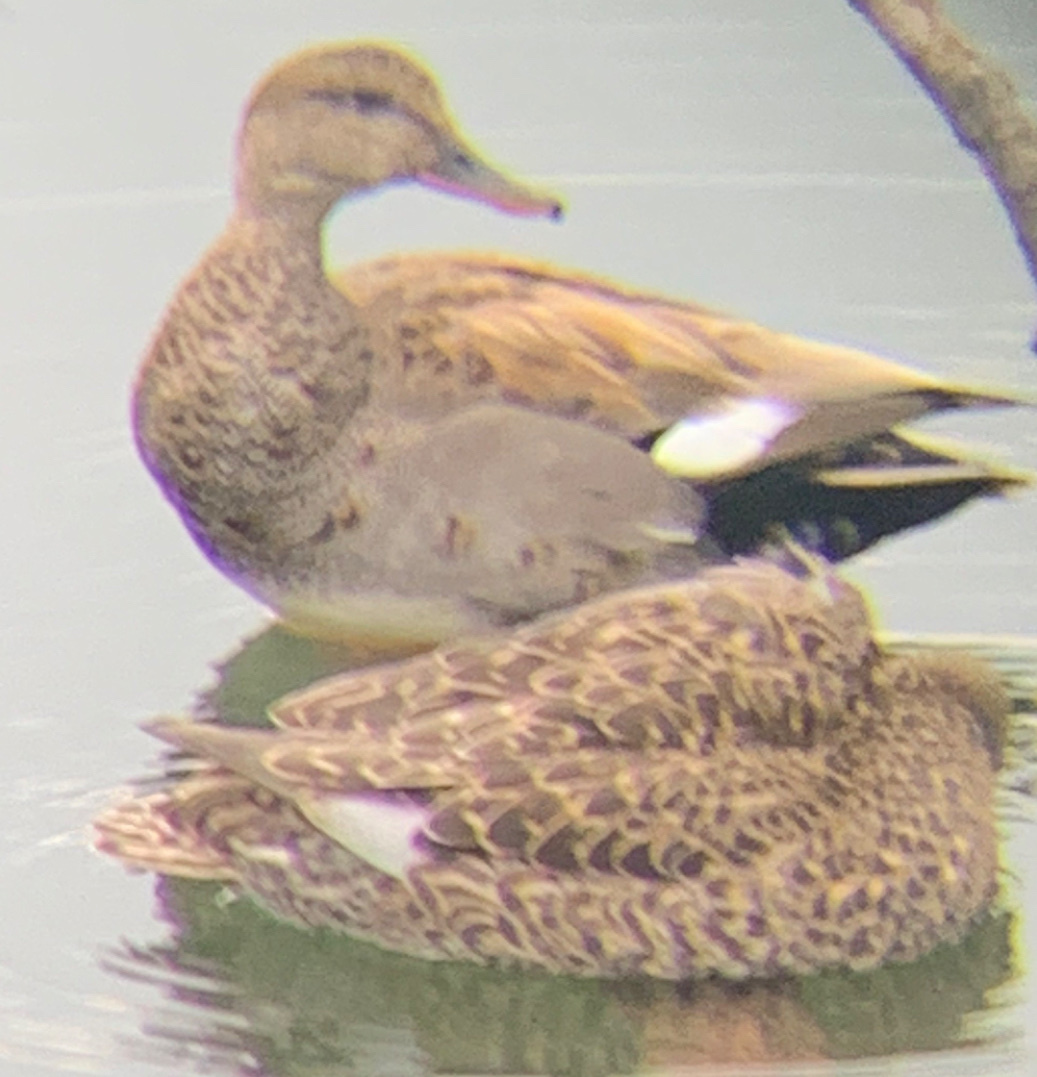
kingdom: Animalia
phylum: Chordata
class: Aves
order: Anseriformes
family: Anatidae
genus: Mareca
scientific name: Mareca strepera
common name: Gadwall
